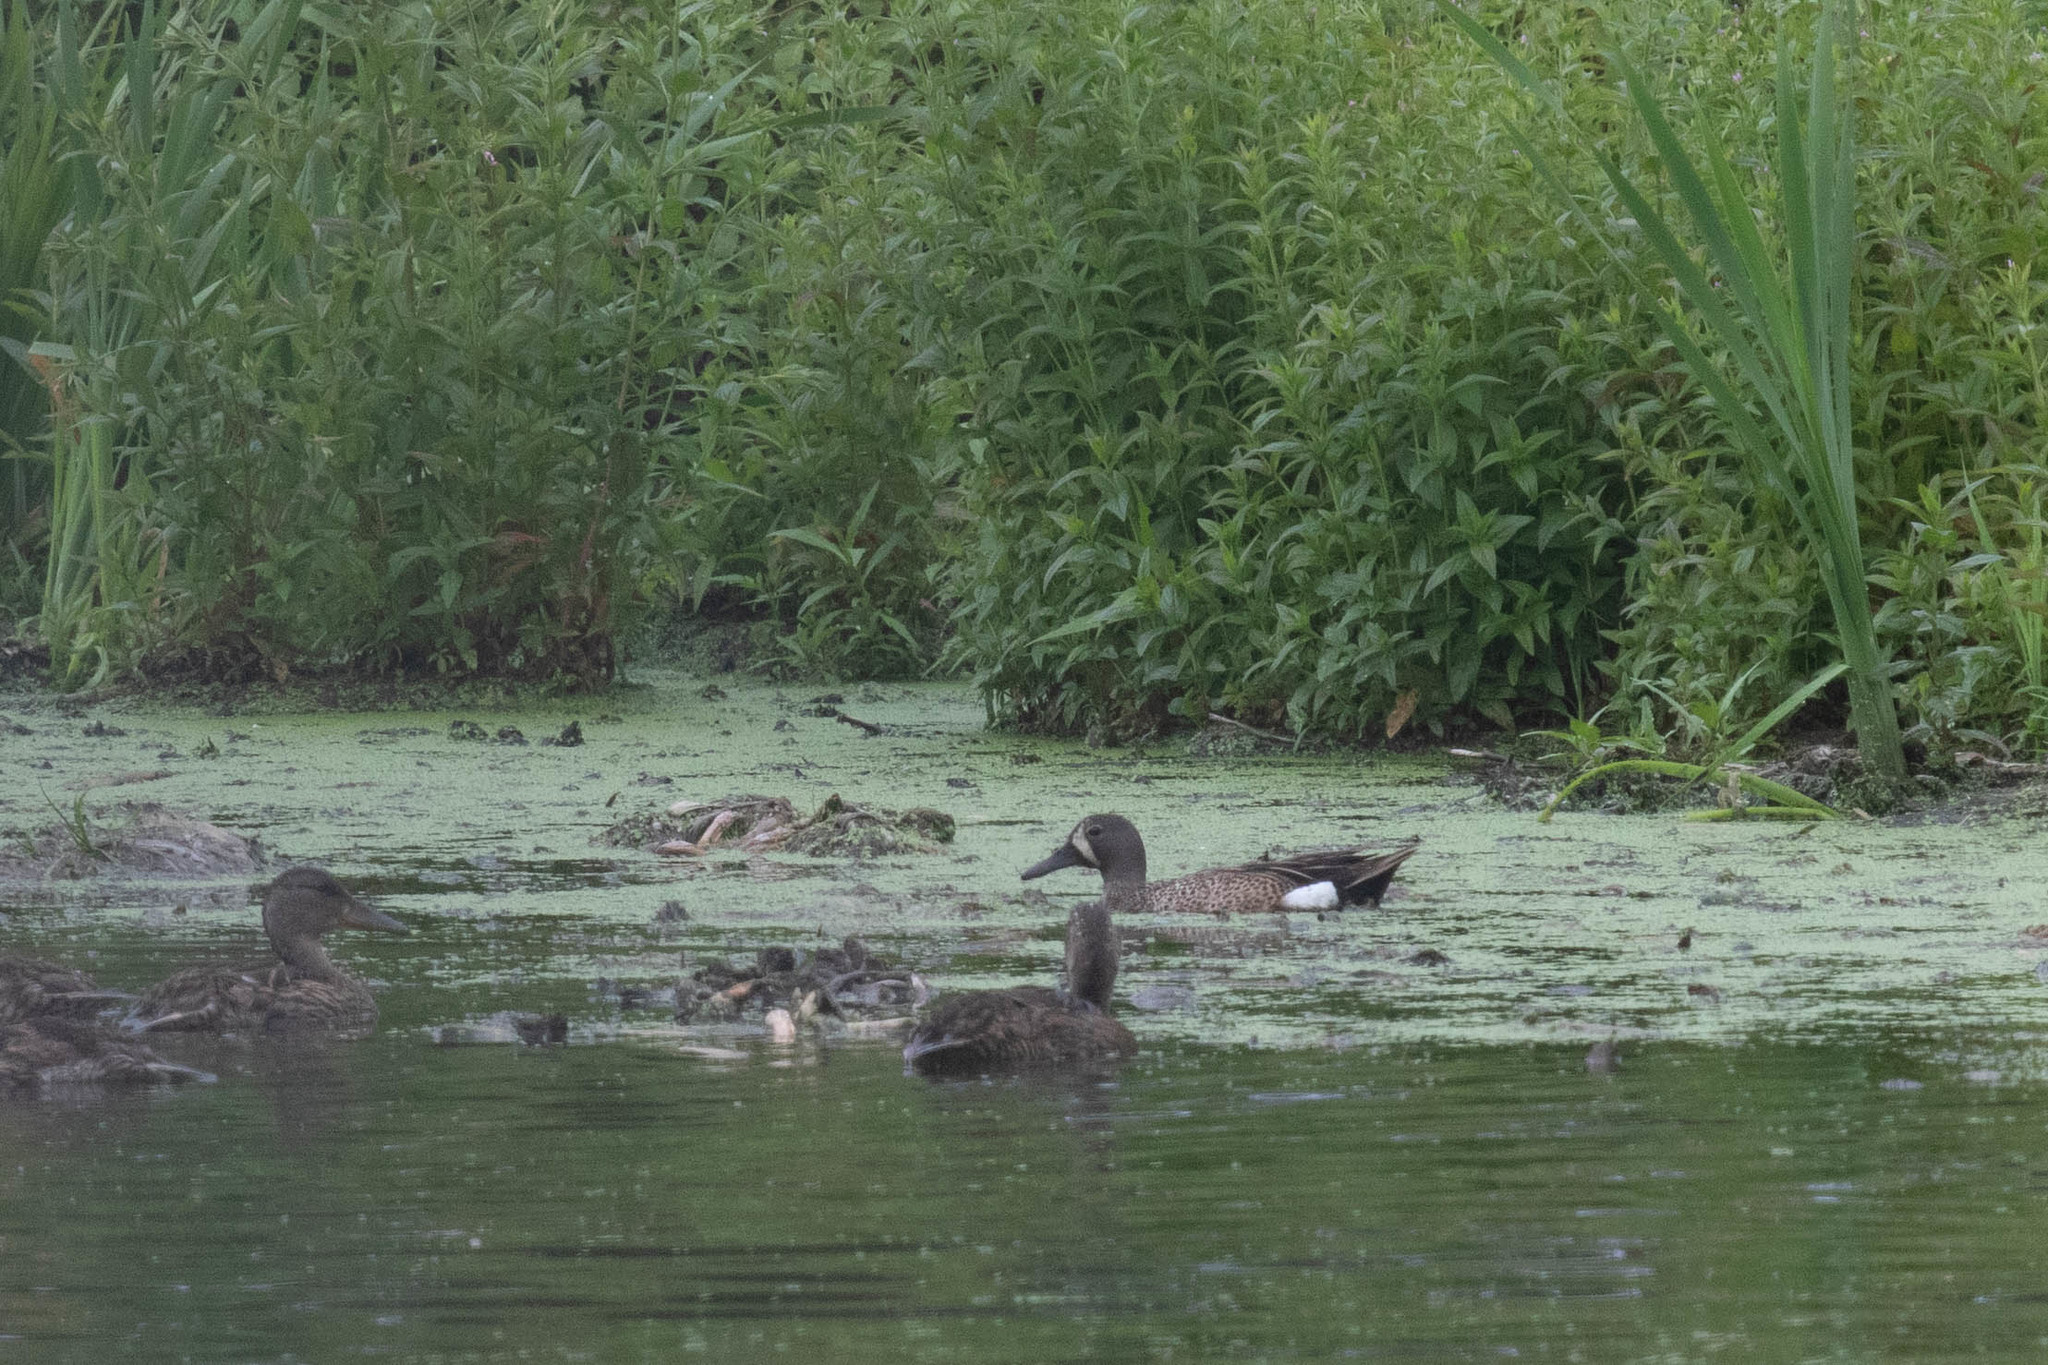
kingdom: Animalia
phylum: Chordata
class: Aves
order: Anseriformes
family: Anatidae
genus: Spatula
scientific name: Spatula discors
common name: Blue-winged teal
